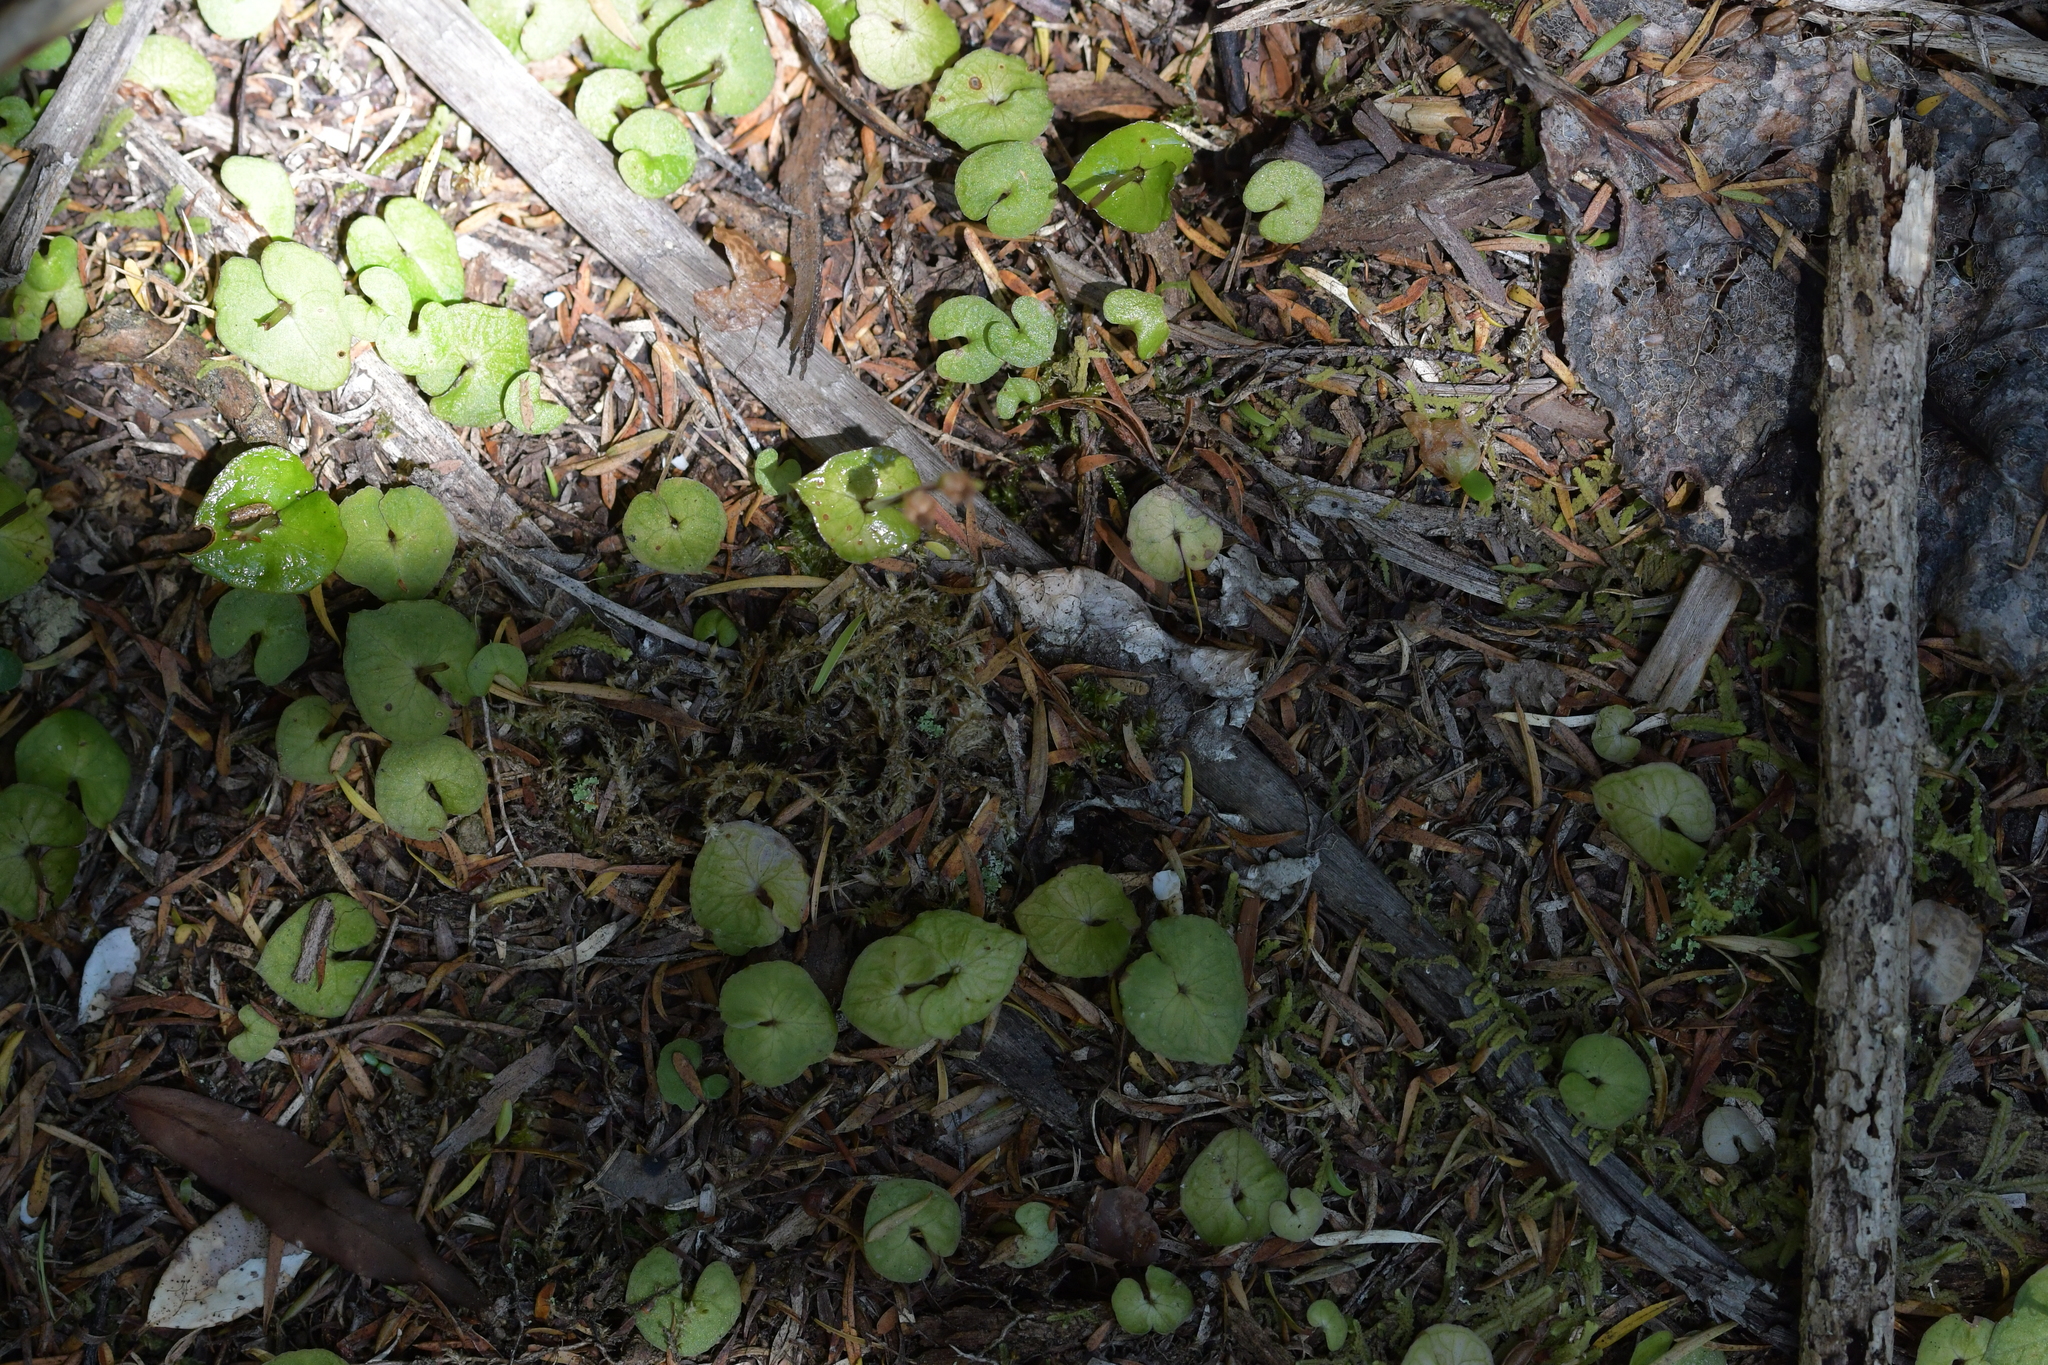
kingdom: Plantae
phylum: Tracheophyta
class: Liliopsida
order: Asparagales
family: Orchidaceae
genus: Acianthus
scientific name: Acianthus sinclairii
